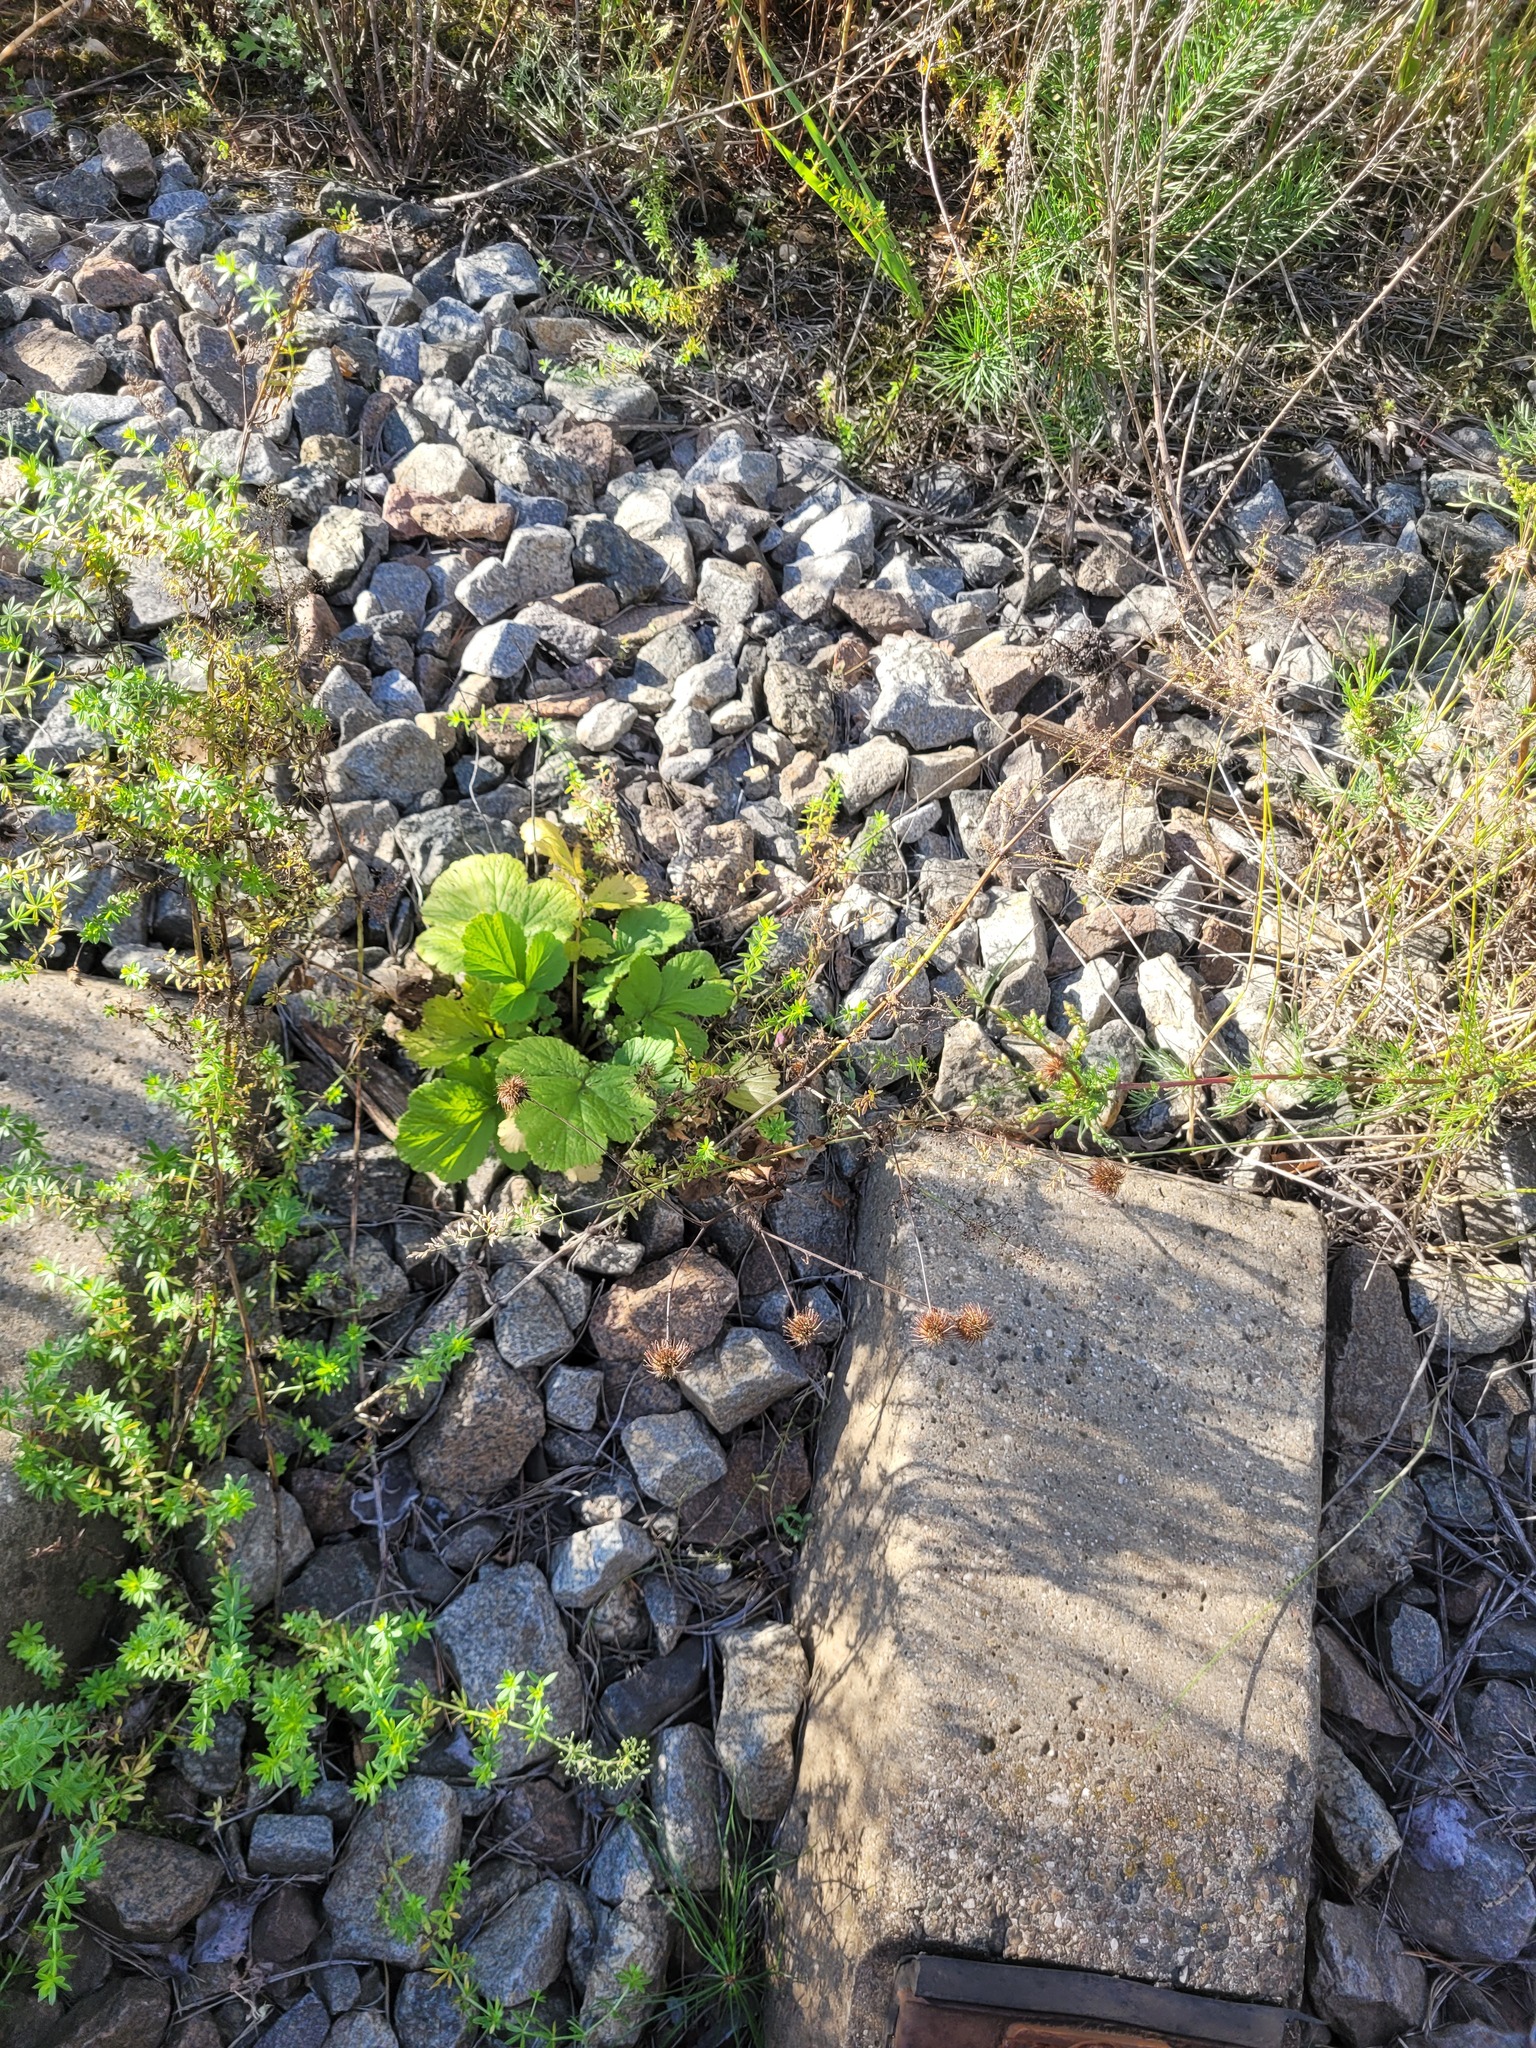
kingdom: Plantae
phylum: Tracheophyta
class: Magnoliopsida
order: Rosales
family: Rosaceae
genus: Geum
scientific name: Geum urbanum
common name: Wood avens
